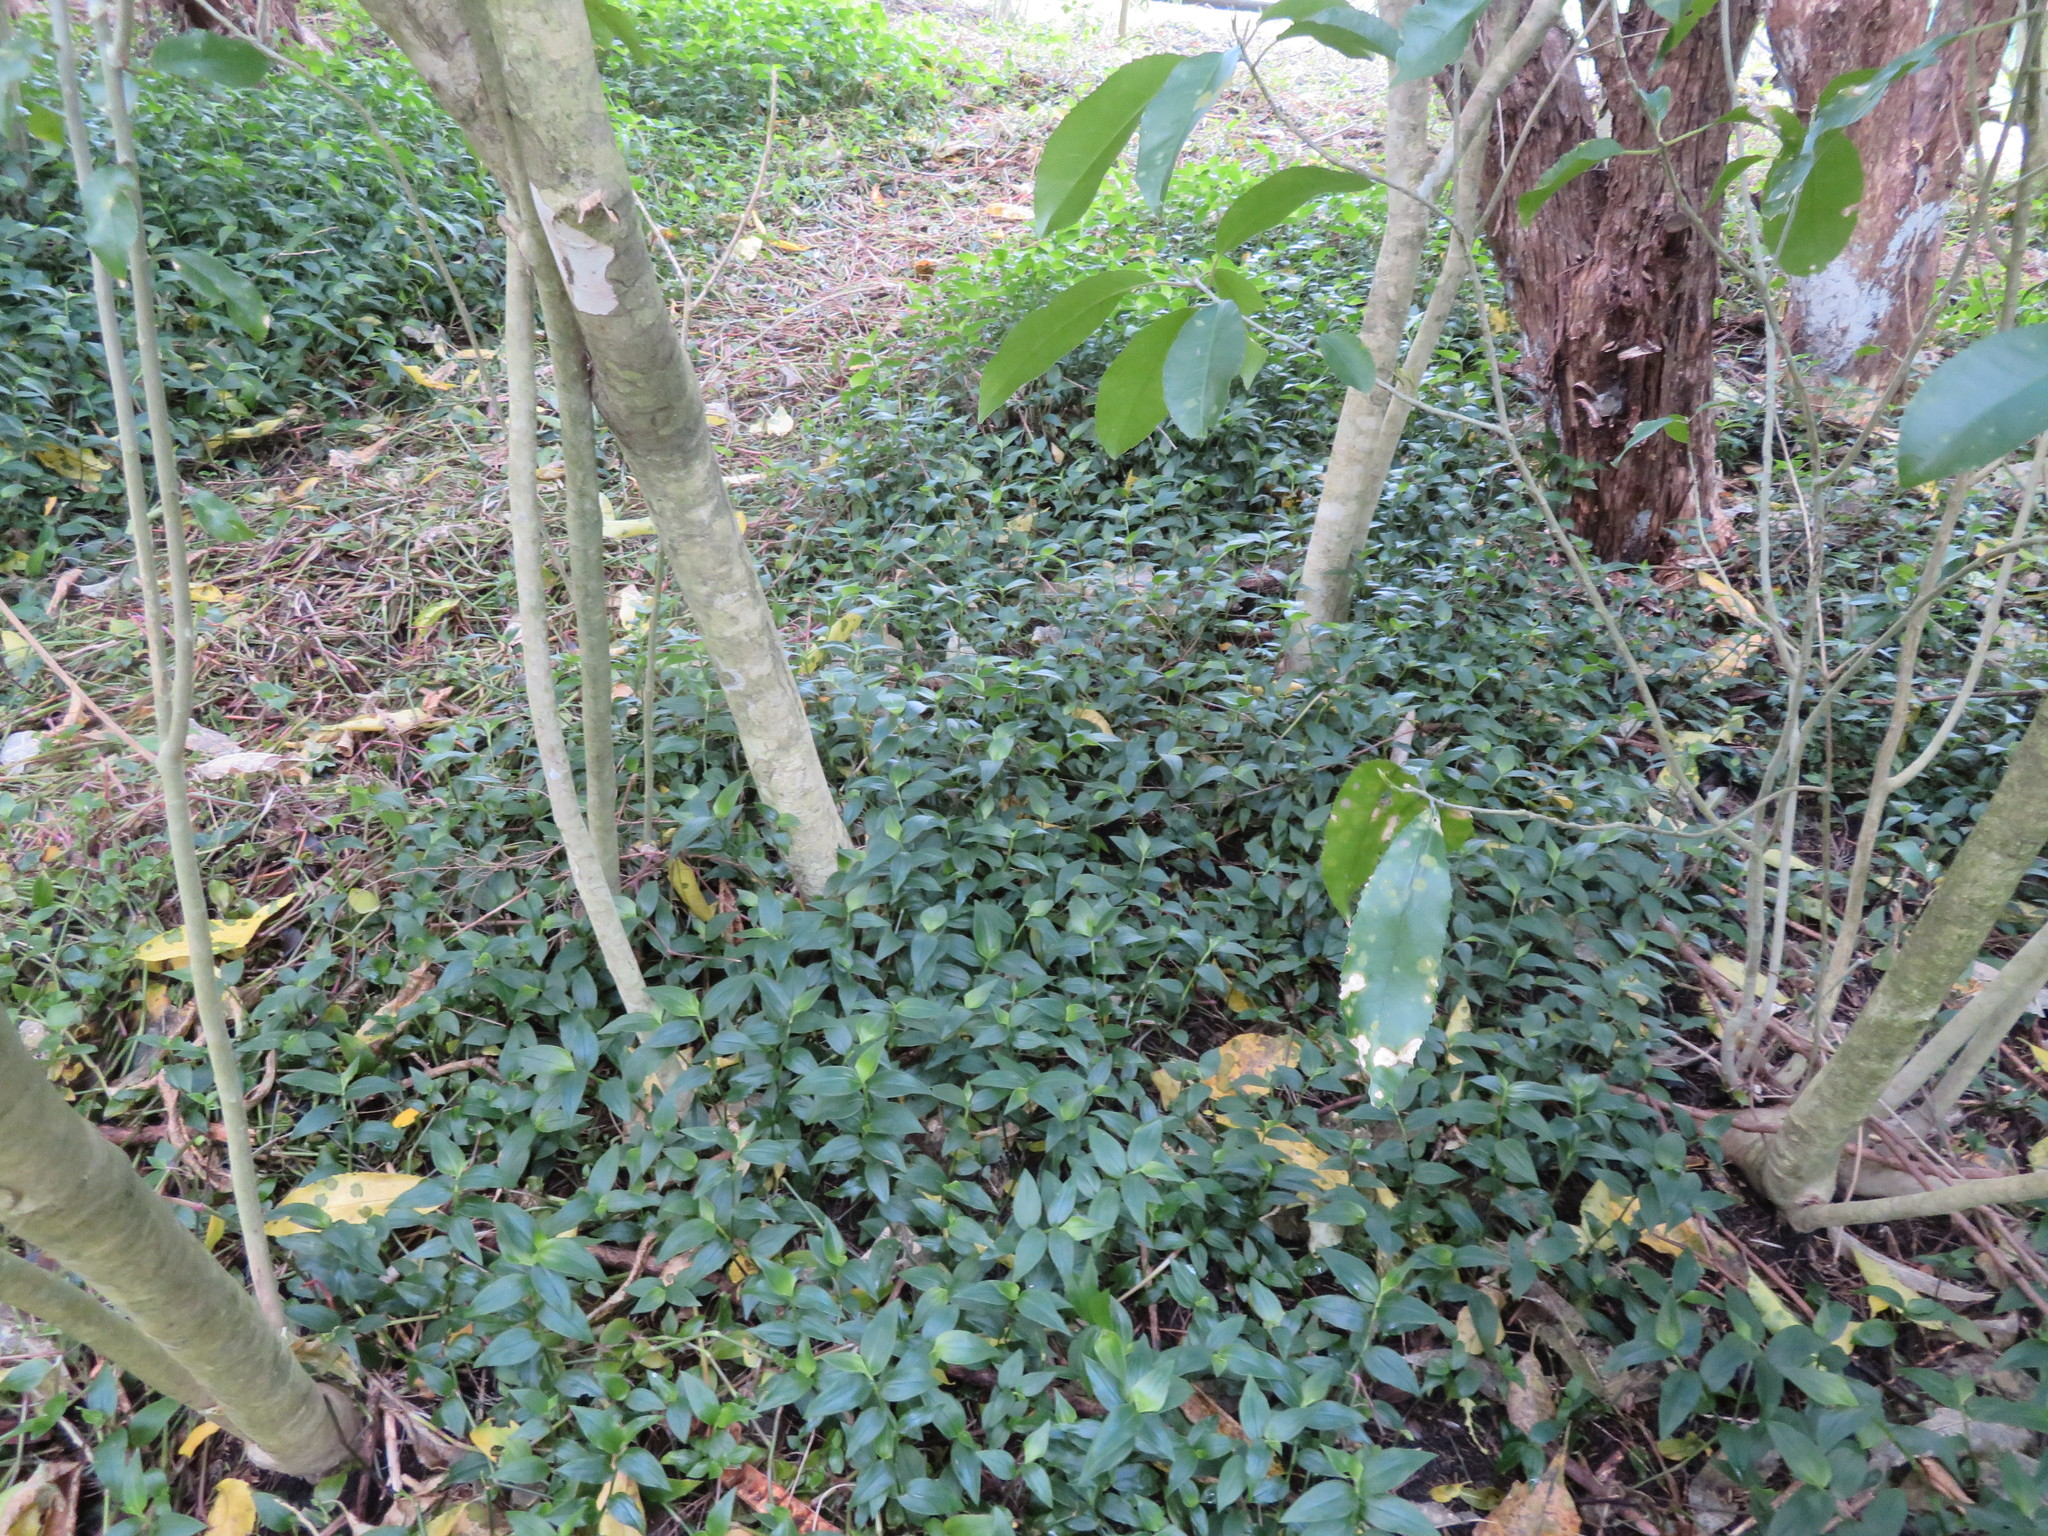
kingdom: Plantae
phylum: Tracheophyta
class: Liliopsida
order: Commelinales
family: Commelinaceae
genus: Tradescantia
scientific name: Tradescantia fluminensis
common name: Wandering-jew
